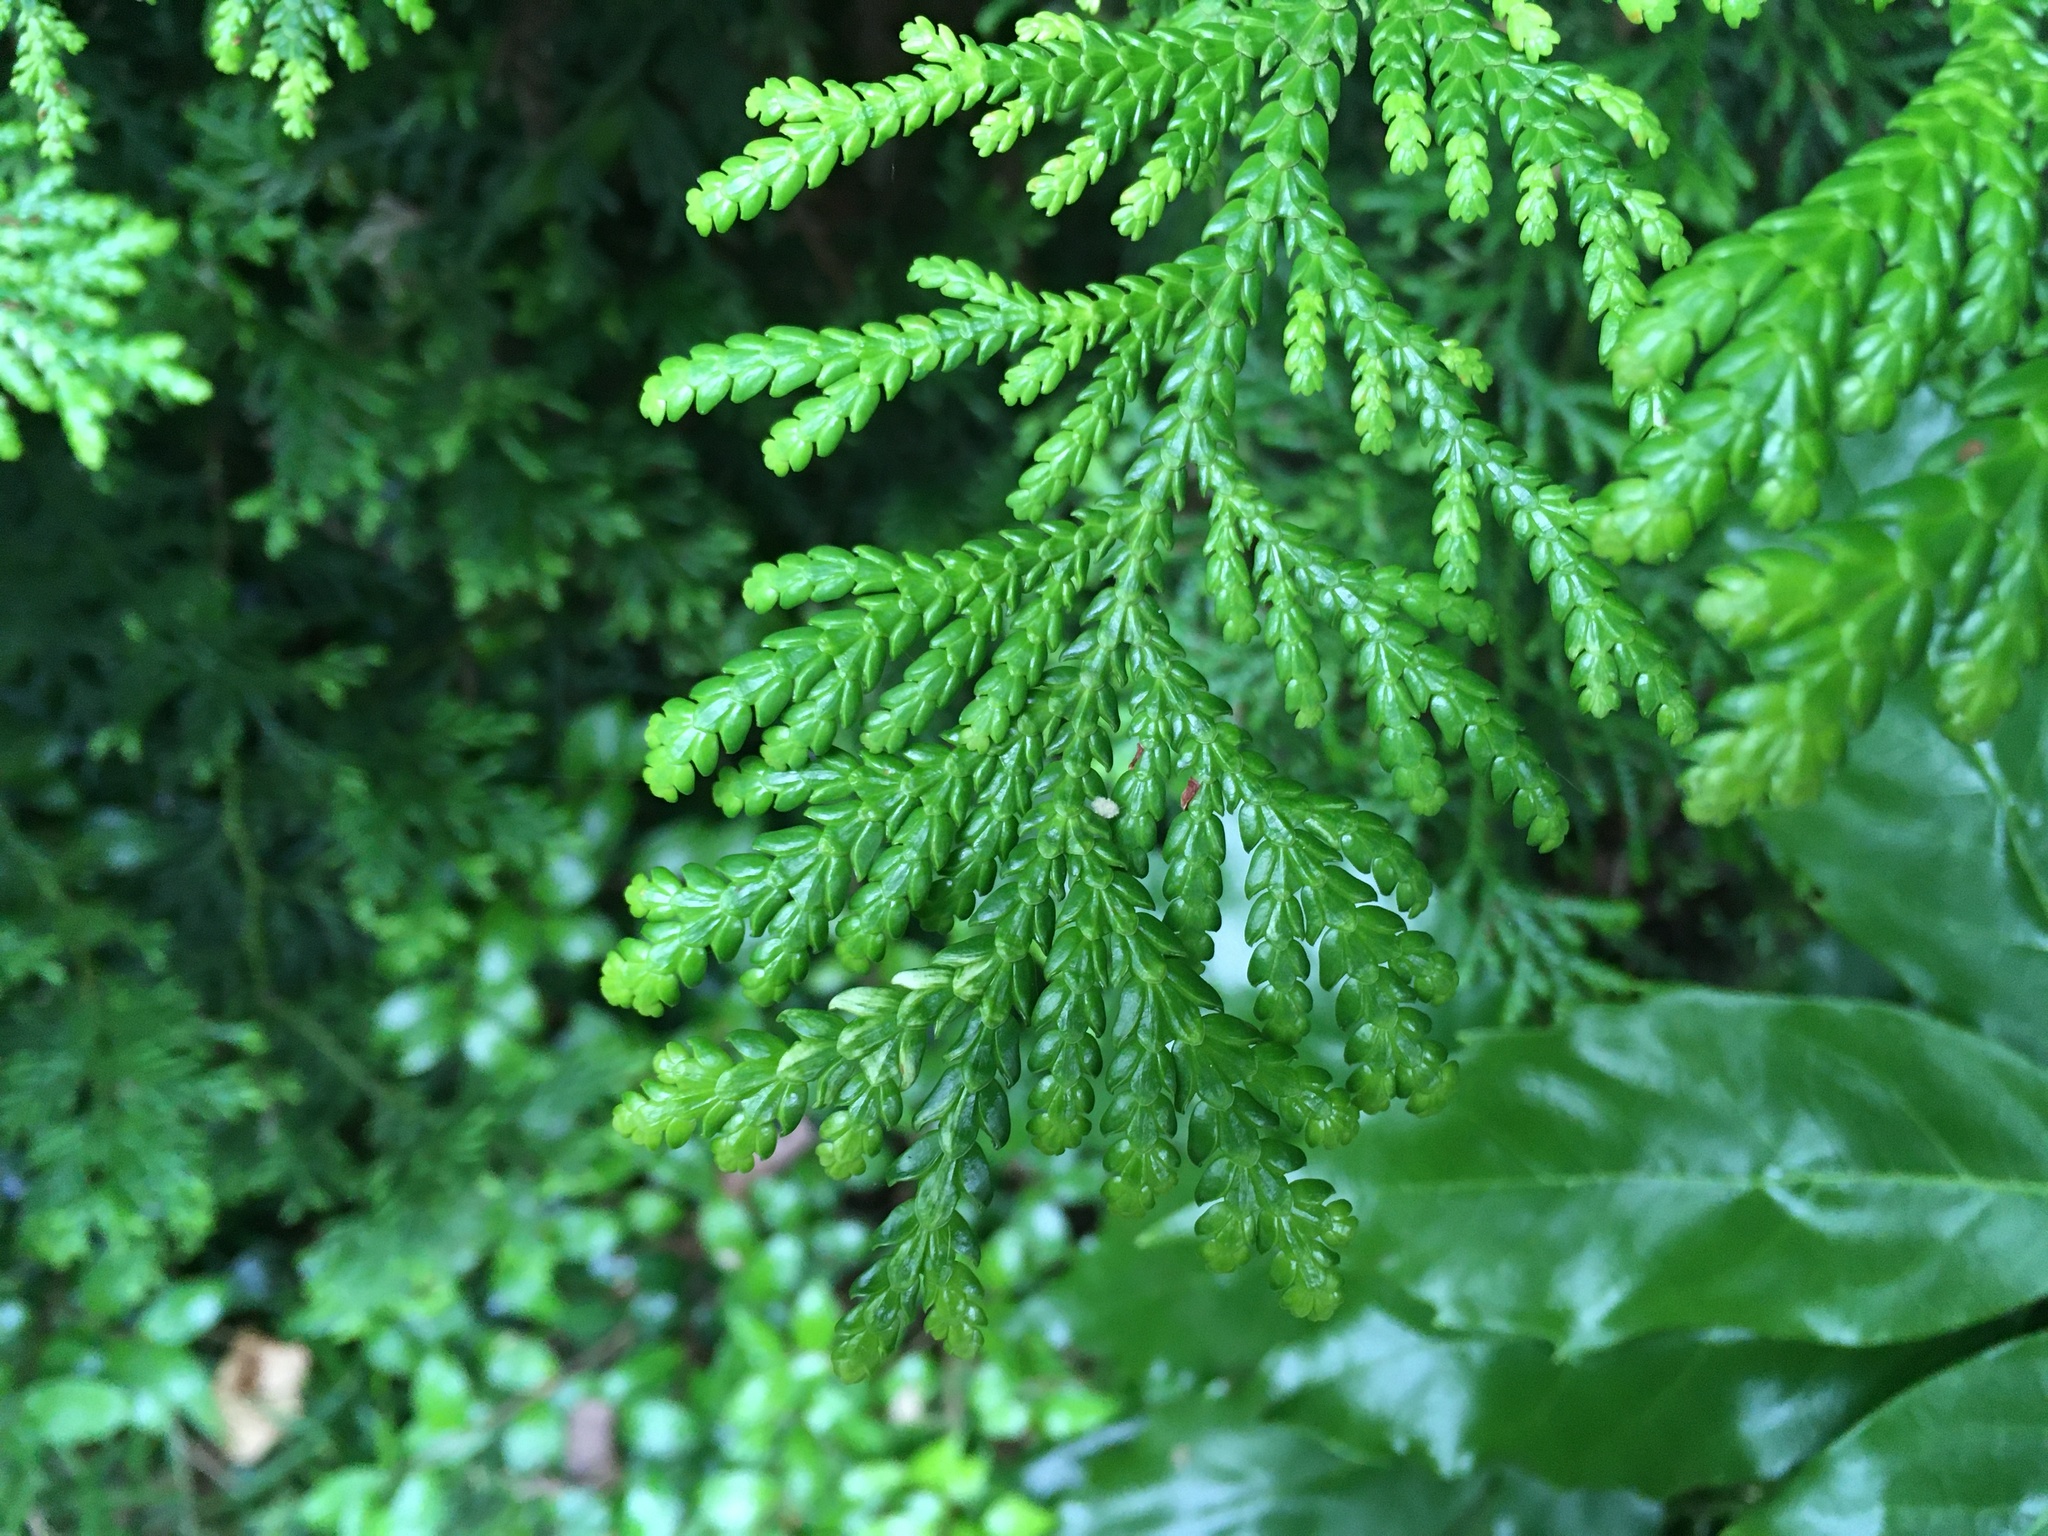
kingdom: Plantae
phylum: Tracheophyta
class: Pinopsida
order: Pinales
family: Cupressaceae
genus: Thujopsis
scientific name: Thujopsis dolabrata
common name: Hiba
